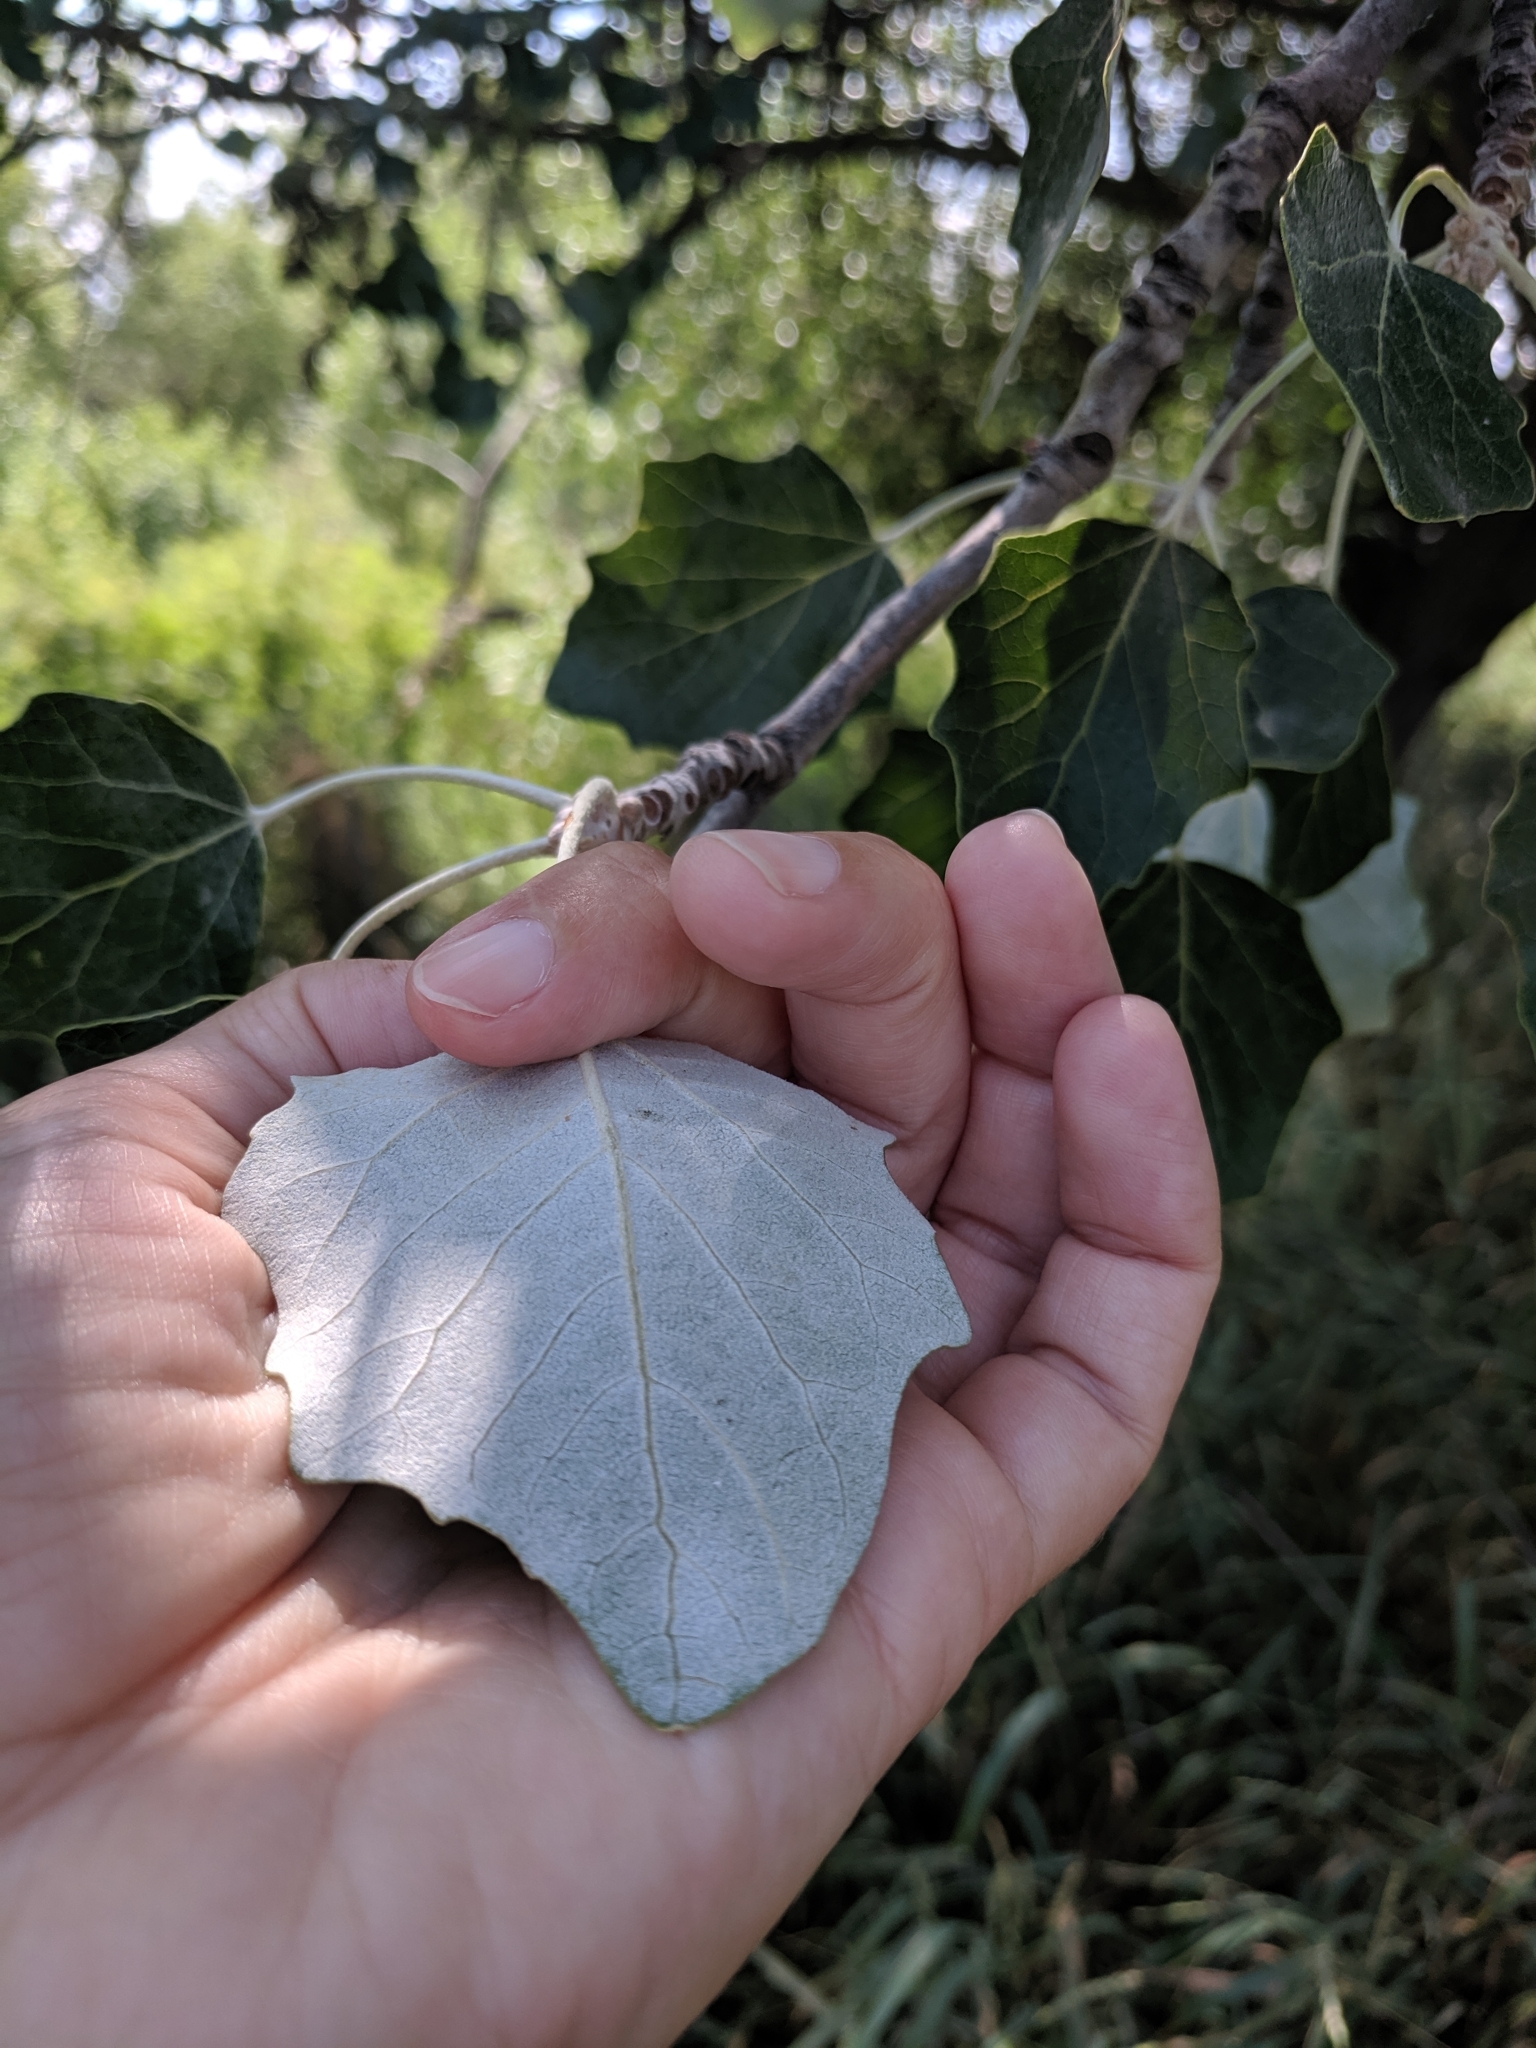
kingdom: Plantae
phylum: Tracheophyta
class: Magnoliopsida
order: Malpighiales
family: Salicaceae
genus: Populus
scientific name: Populus alba
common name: White poplar
